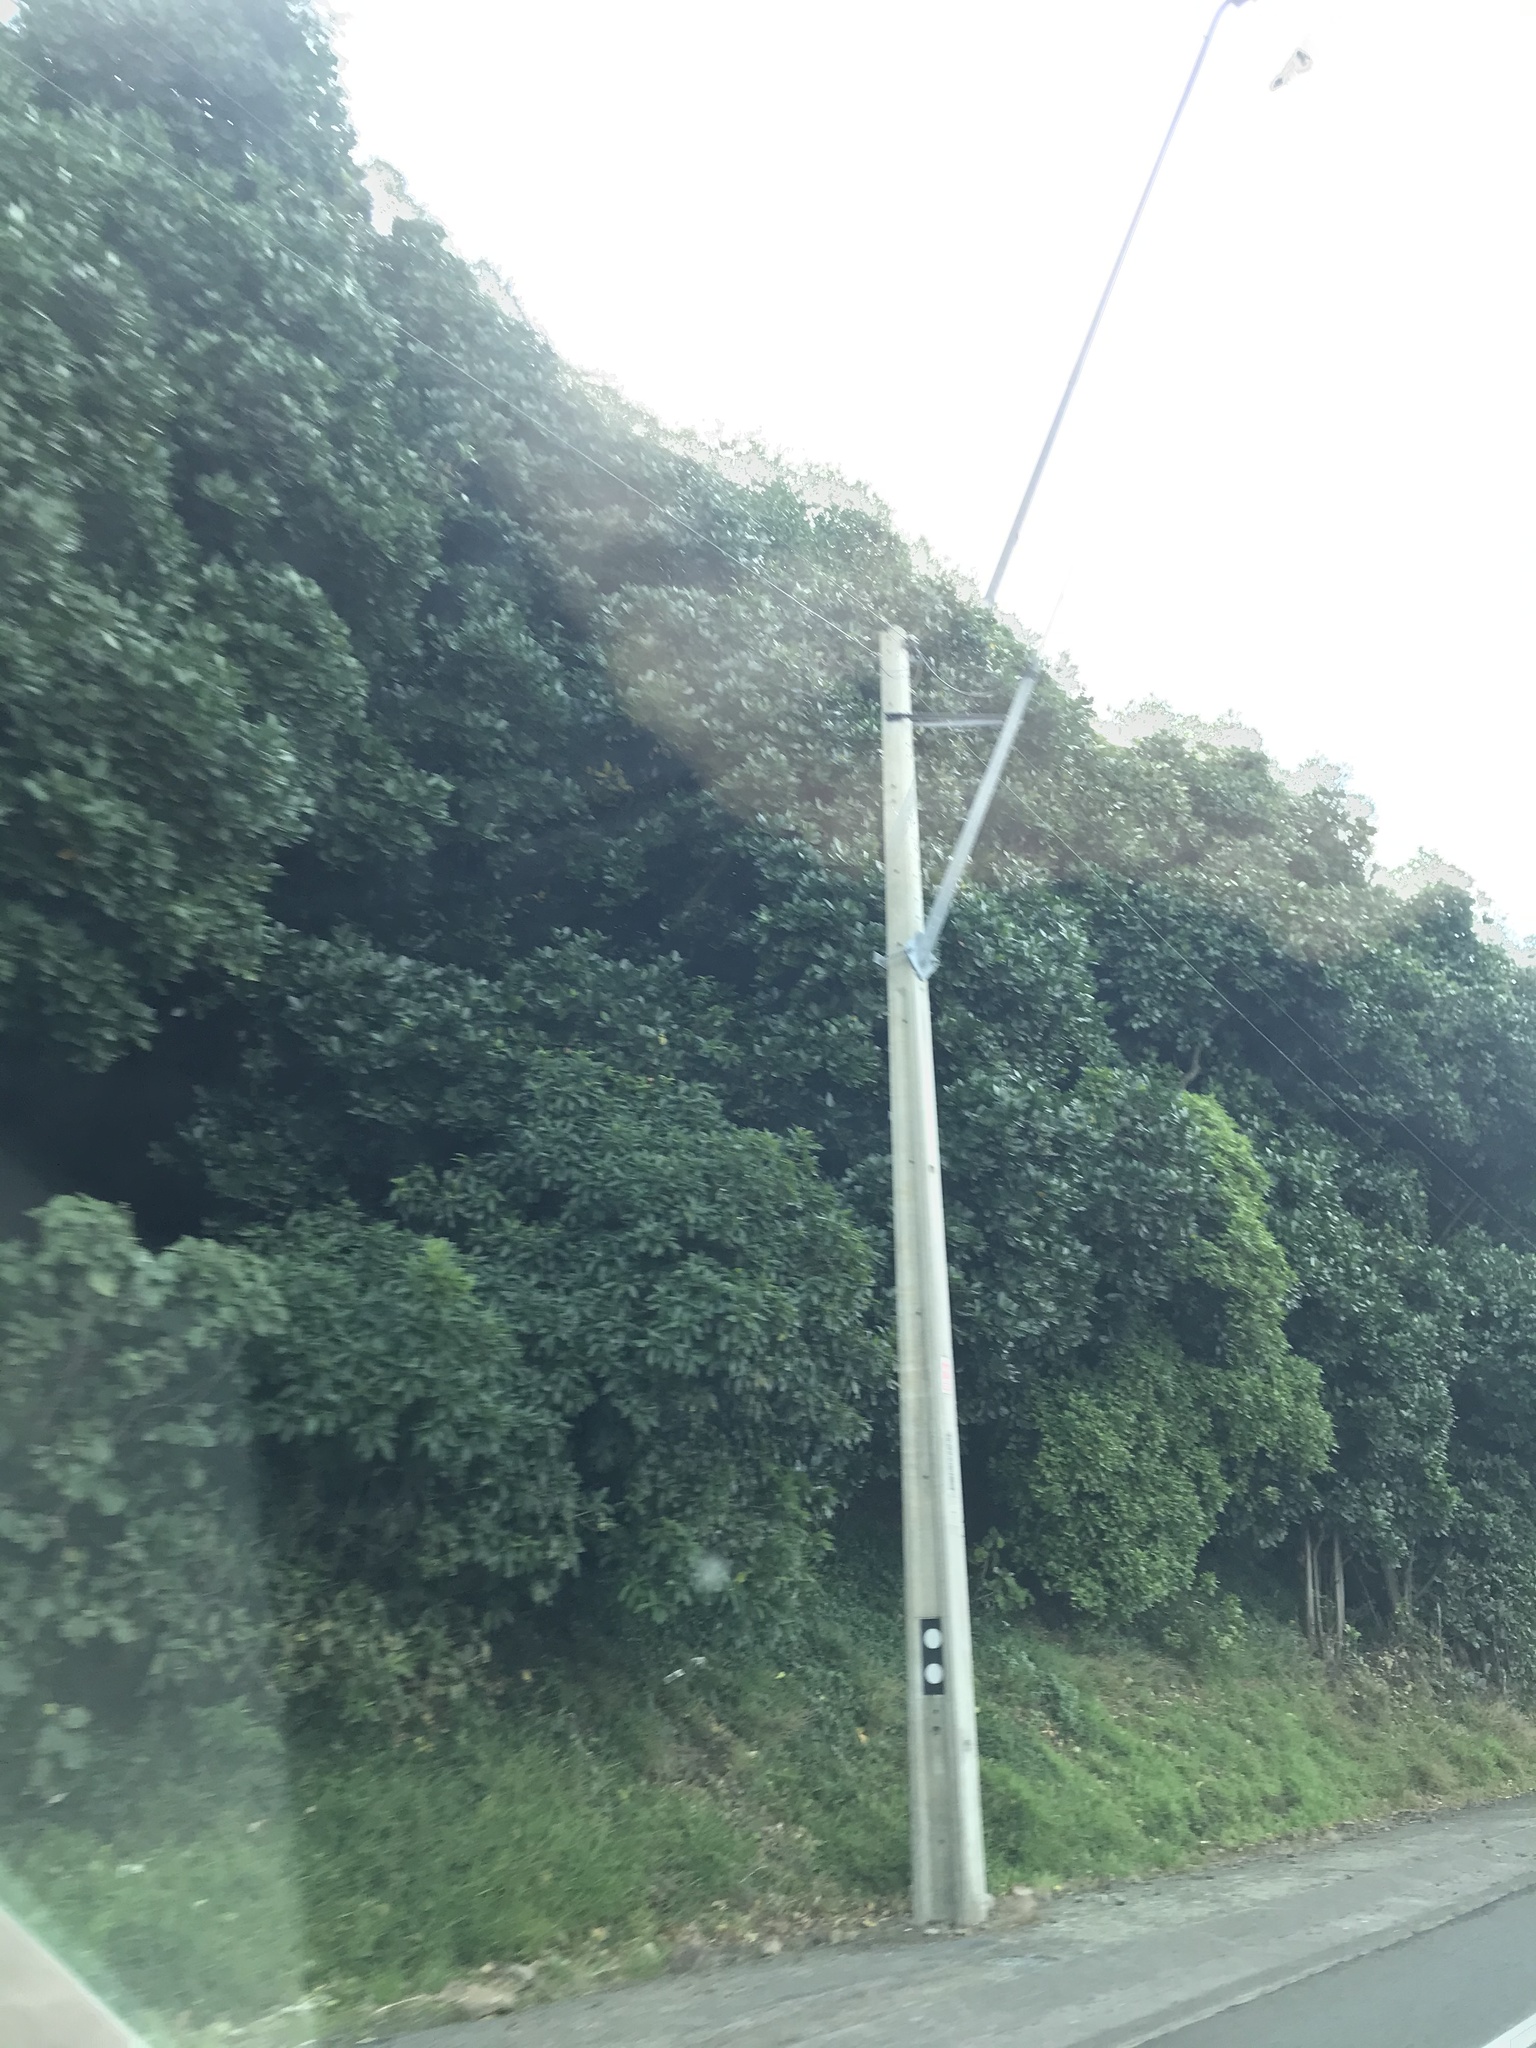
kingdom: Plantae
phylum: Tracheophyta
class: Magnoliopsida
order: Sapindales
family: Rutaceae
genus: Melicope
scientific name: Melicope ternata
